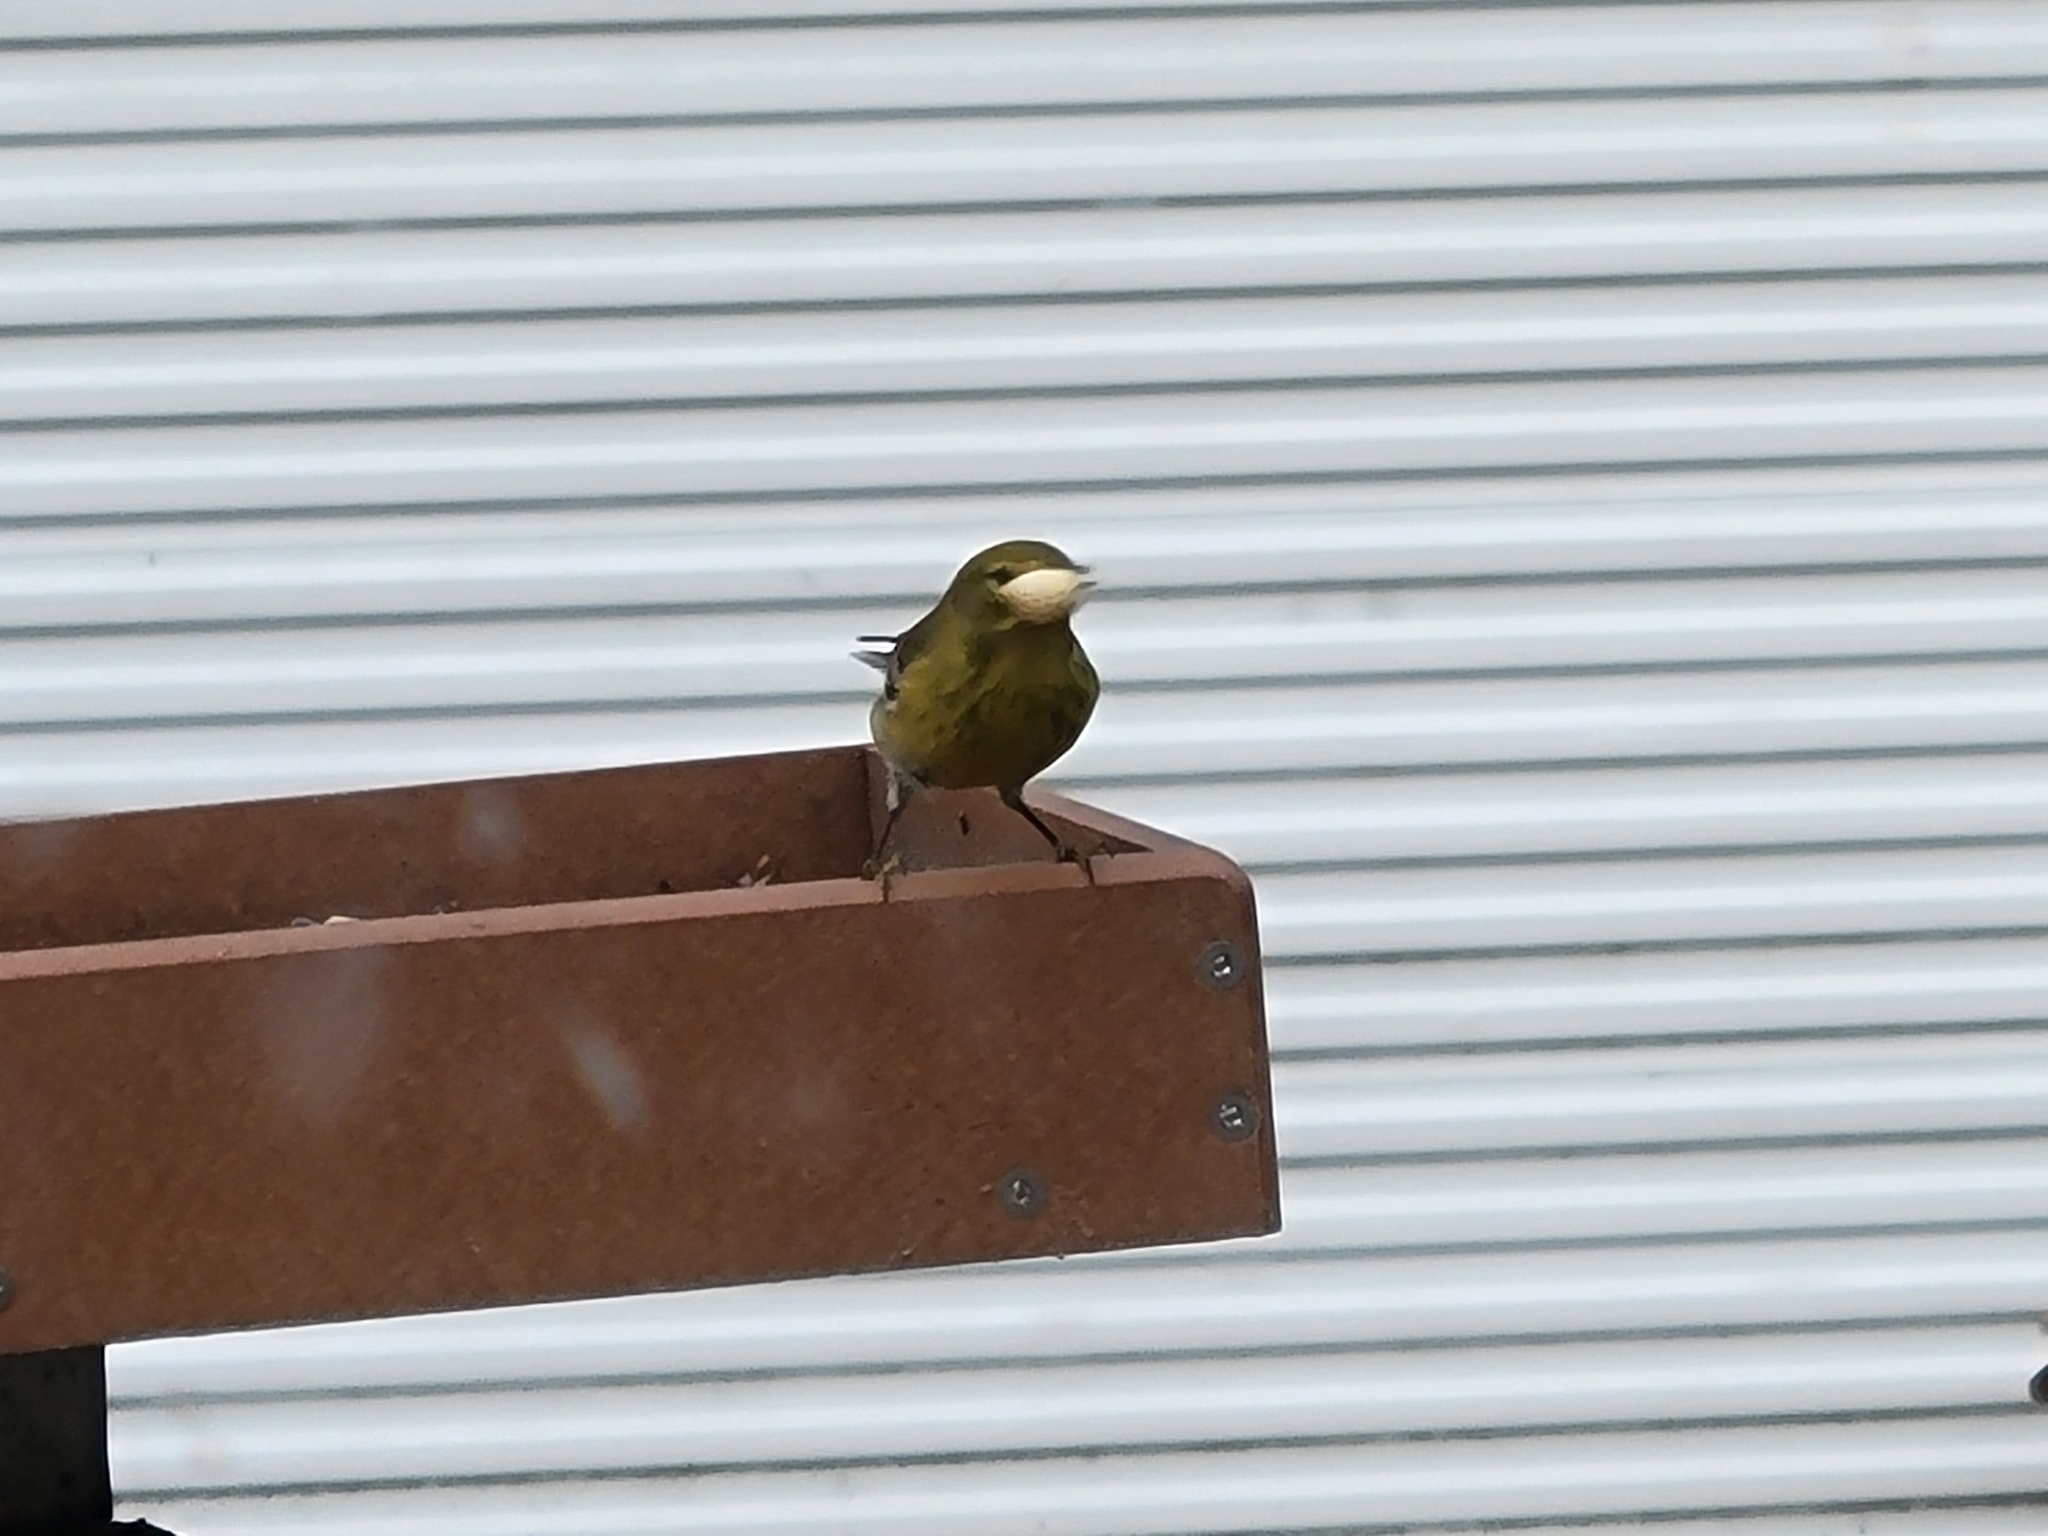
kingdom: Animalia
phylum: Chordata
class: Aves
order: Passeriformes
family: Parulidae
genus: Setophaga
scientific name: Setophaga pinus
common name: Pine warbler
